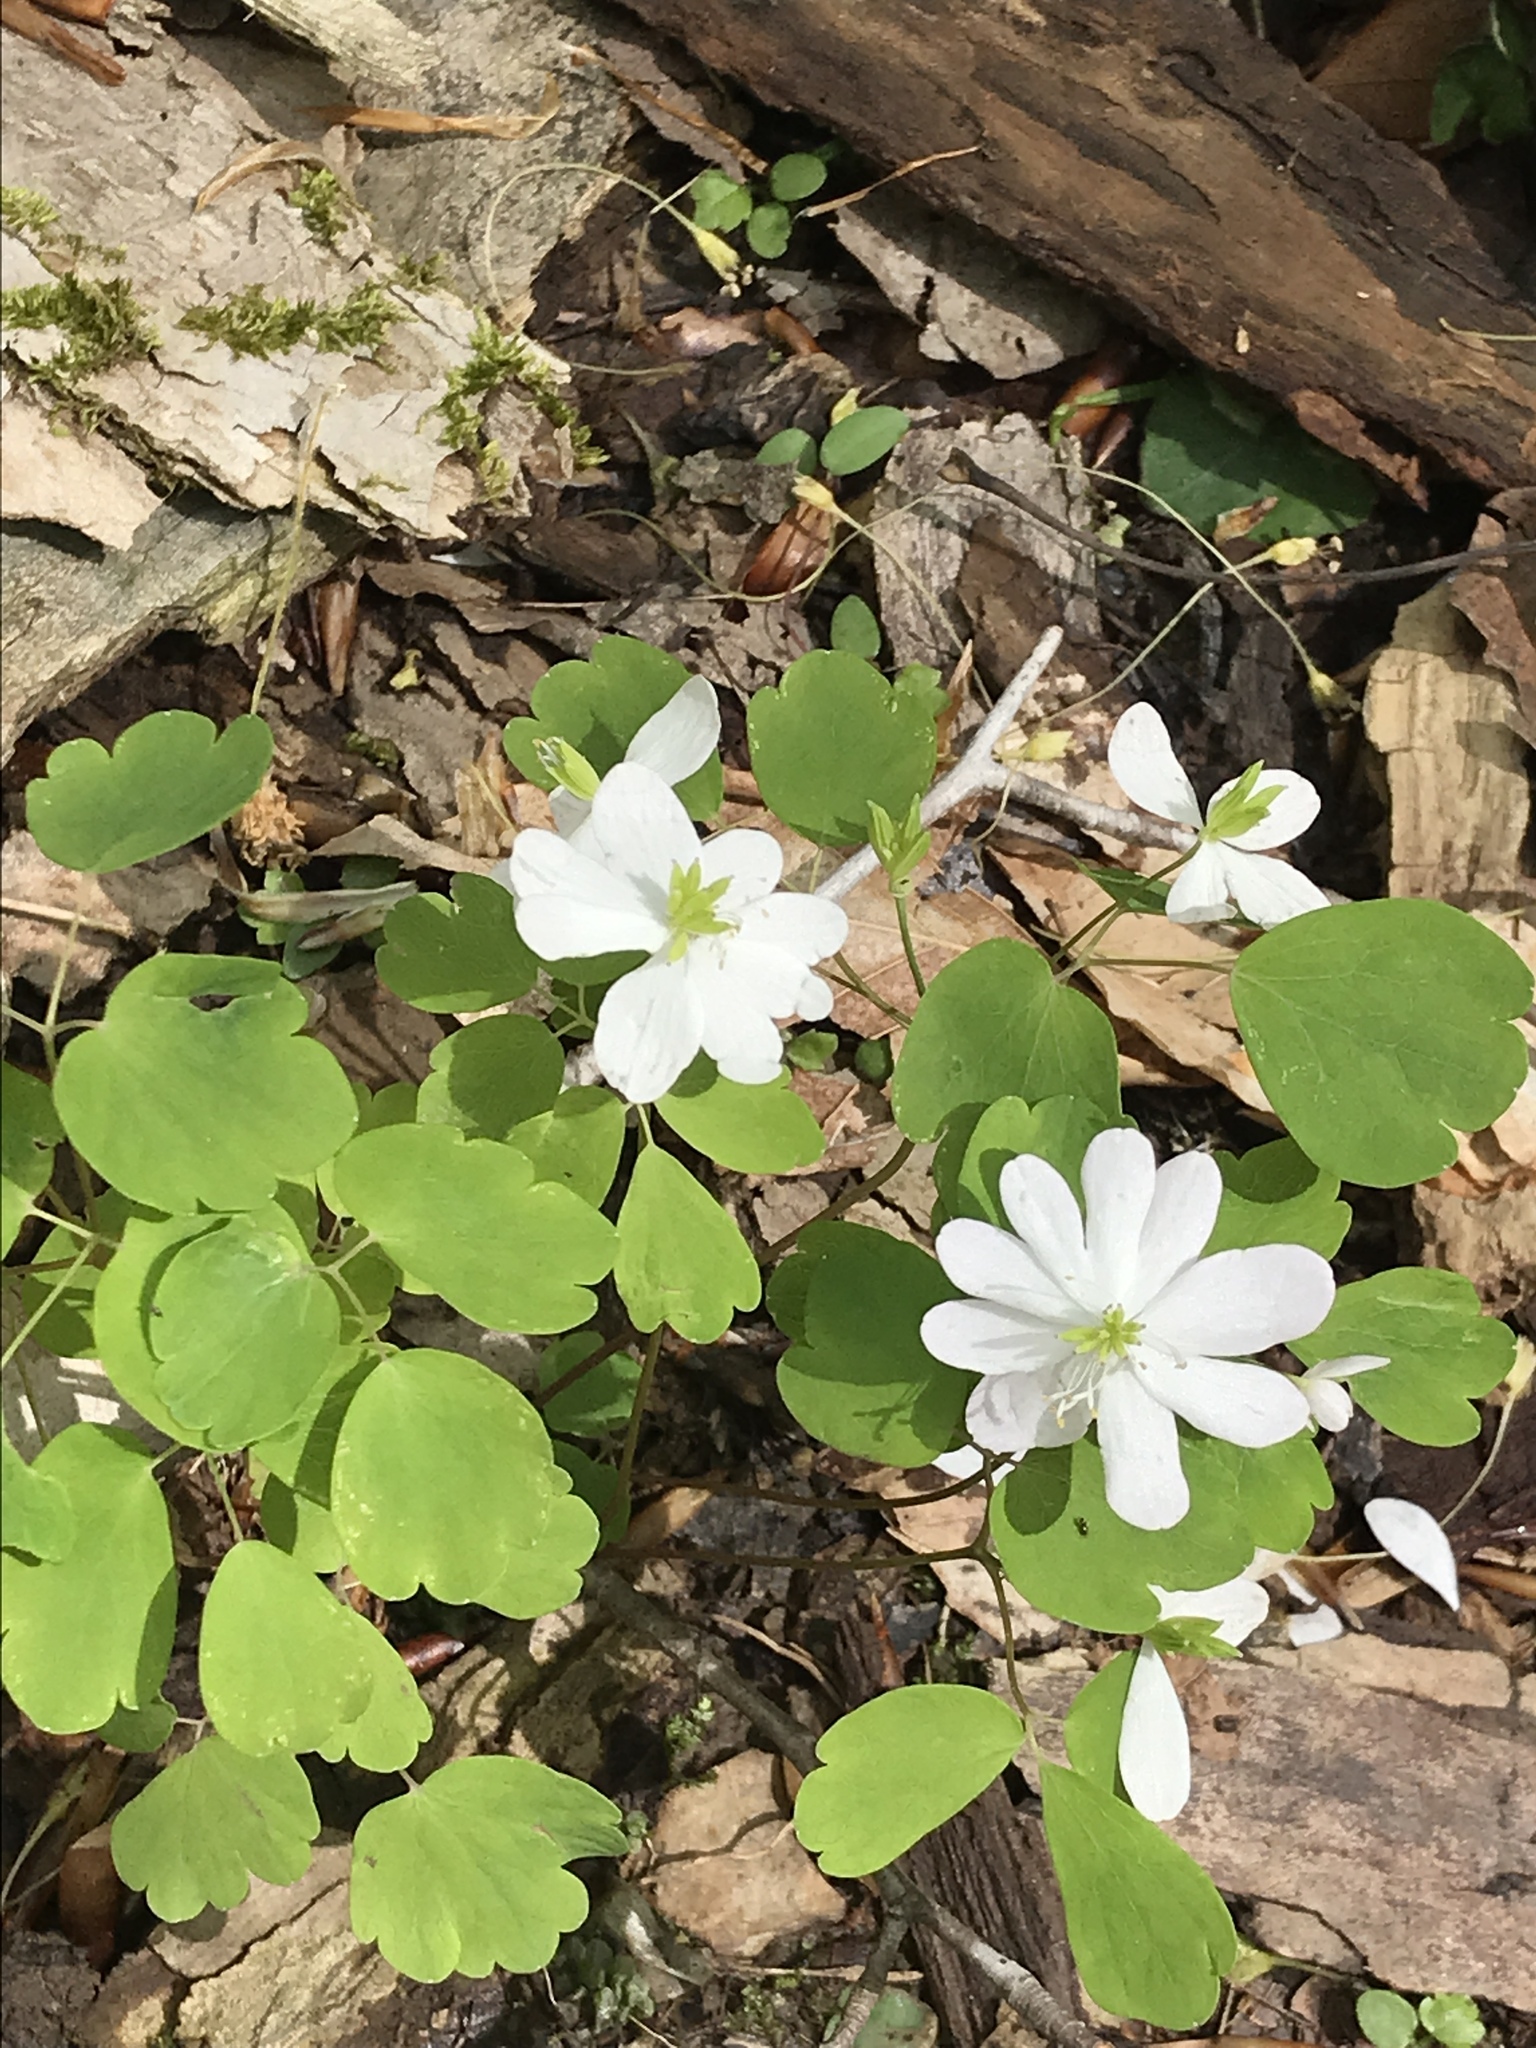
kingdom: Plantae
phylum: Tracheophyta
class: Magnoliopsida
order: Ranunculales
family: Ranunculaceae
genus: Thalictrum
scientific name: Thalictrum thalictroides
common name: Rue-anemone
